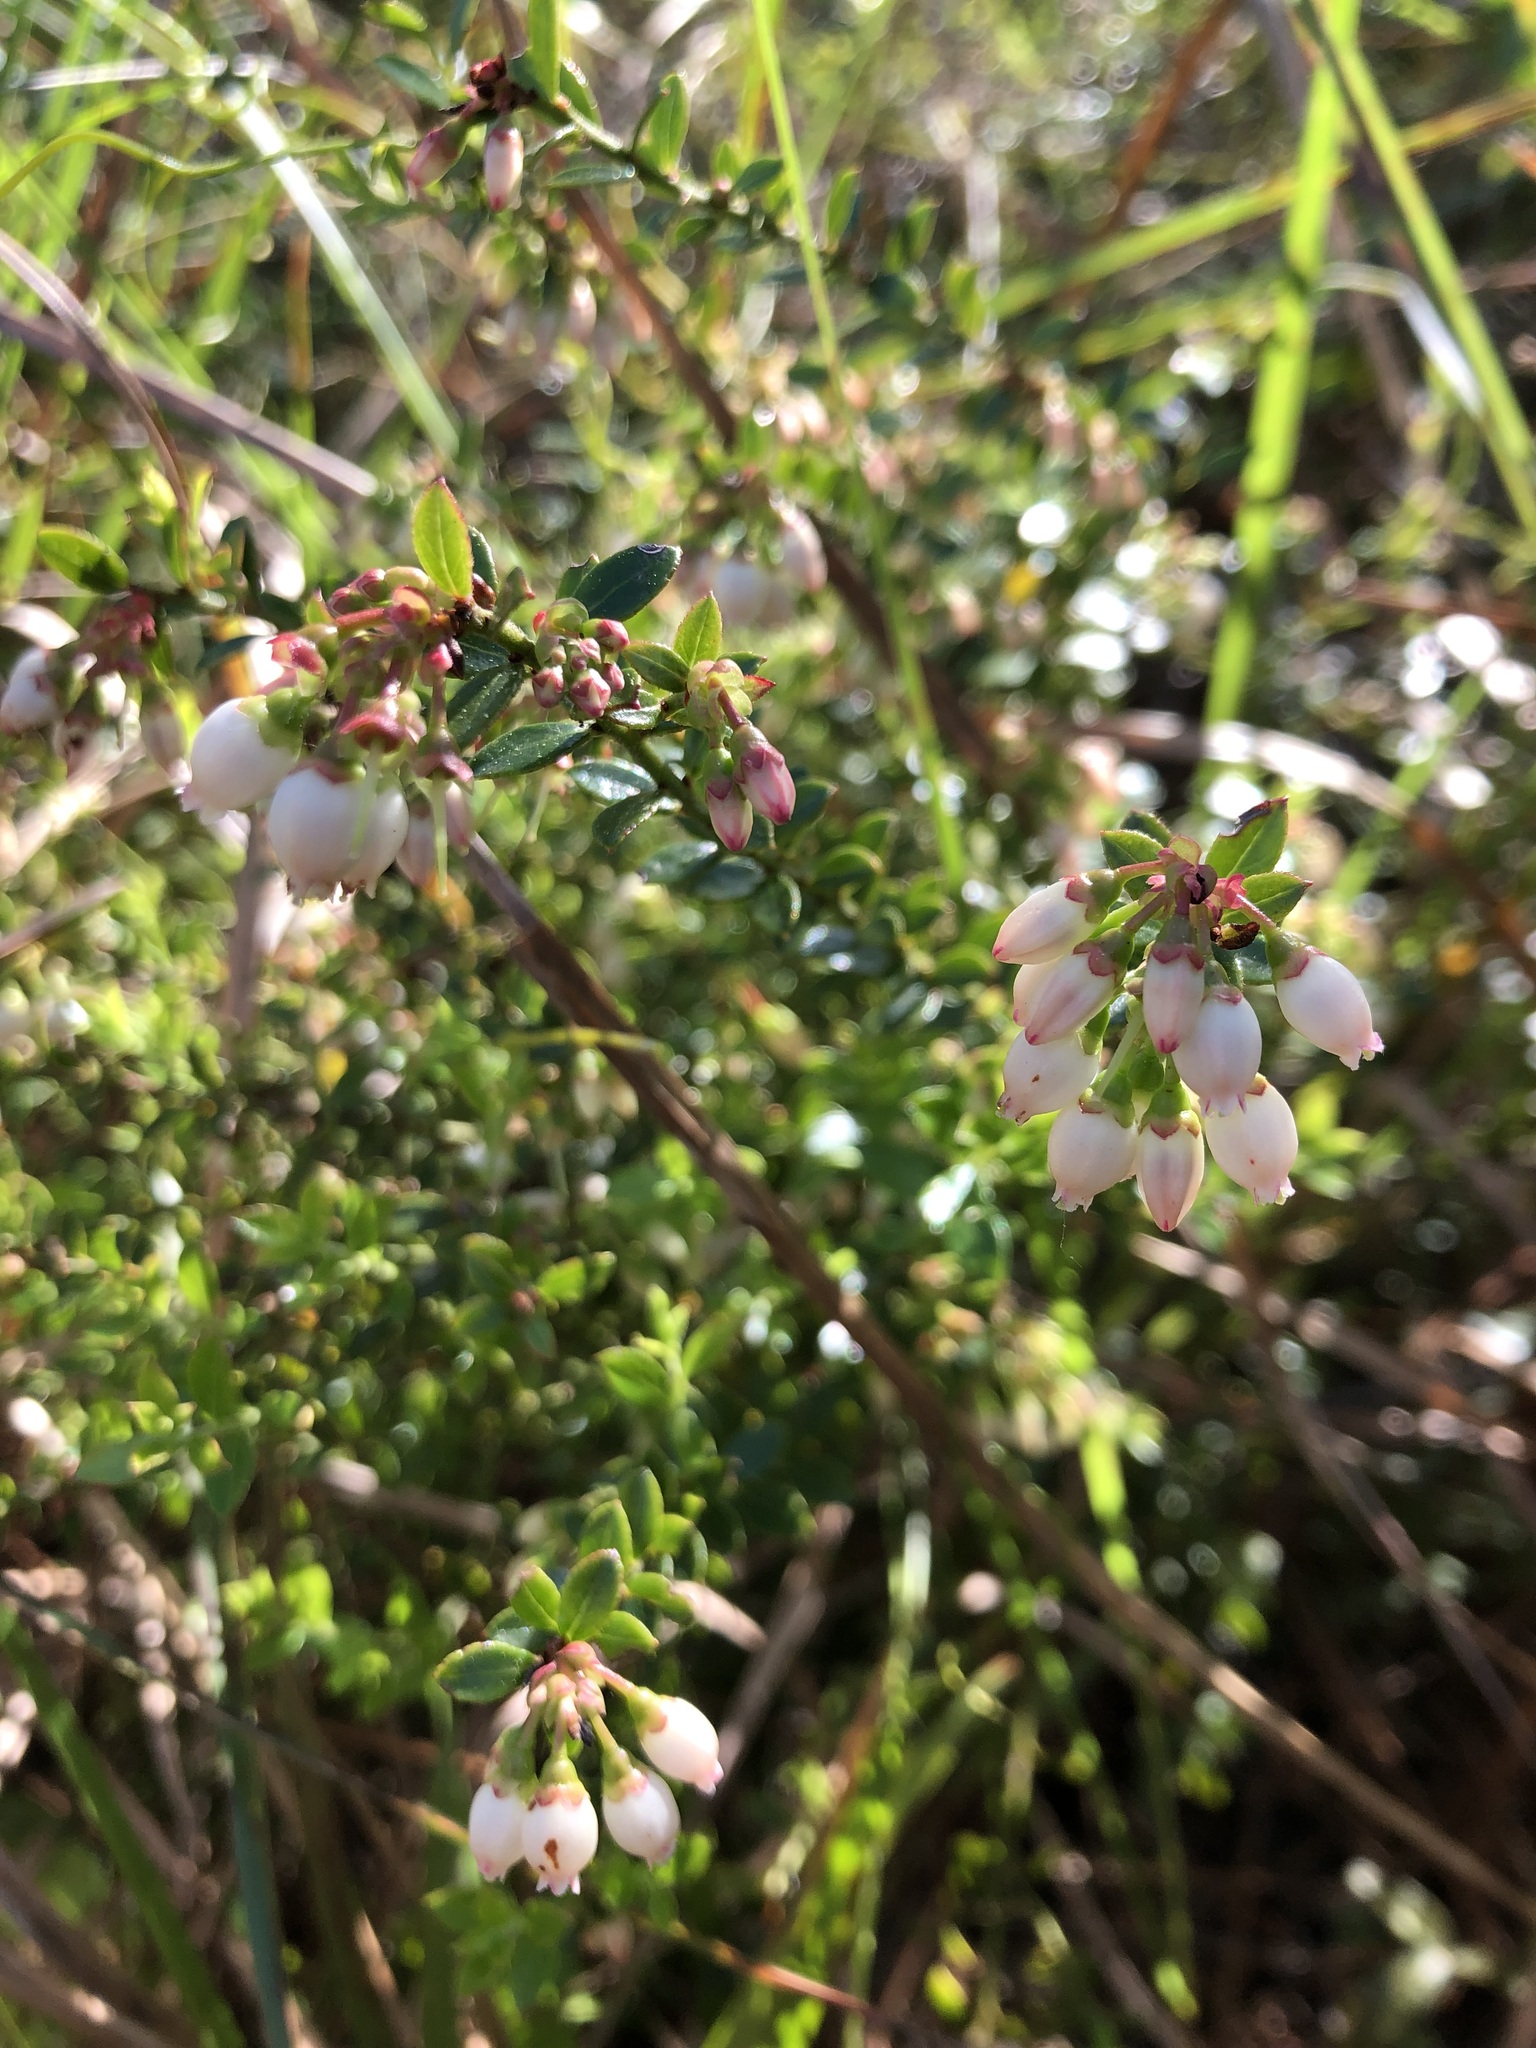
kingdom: Plantae
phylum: Tracheophyta
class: Magnoliopsida
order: Ericales
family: Ericaceae
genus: Vaccinium
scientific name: Vaccinium myrsinites
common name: Evergreen blueberry
